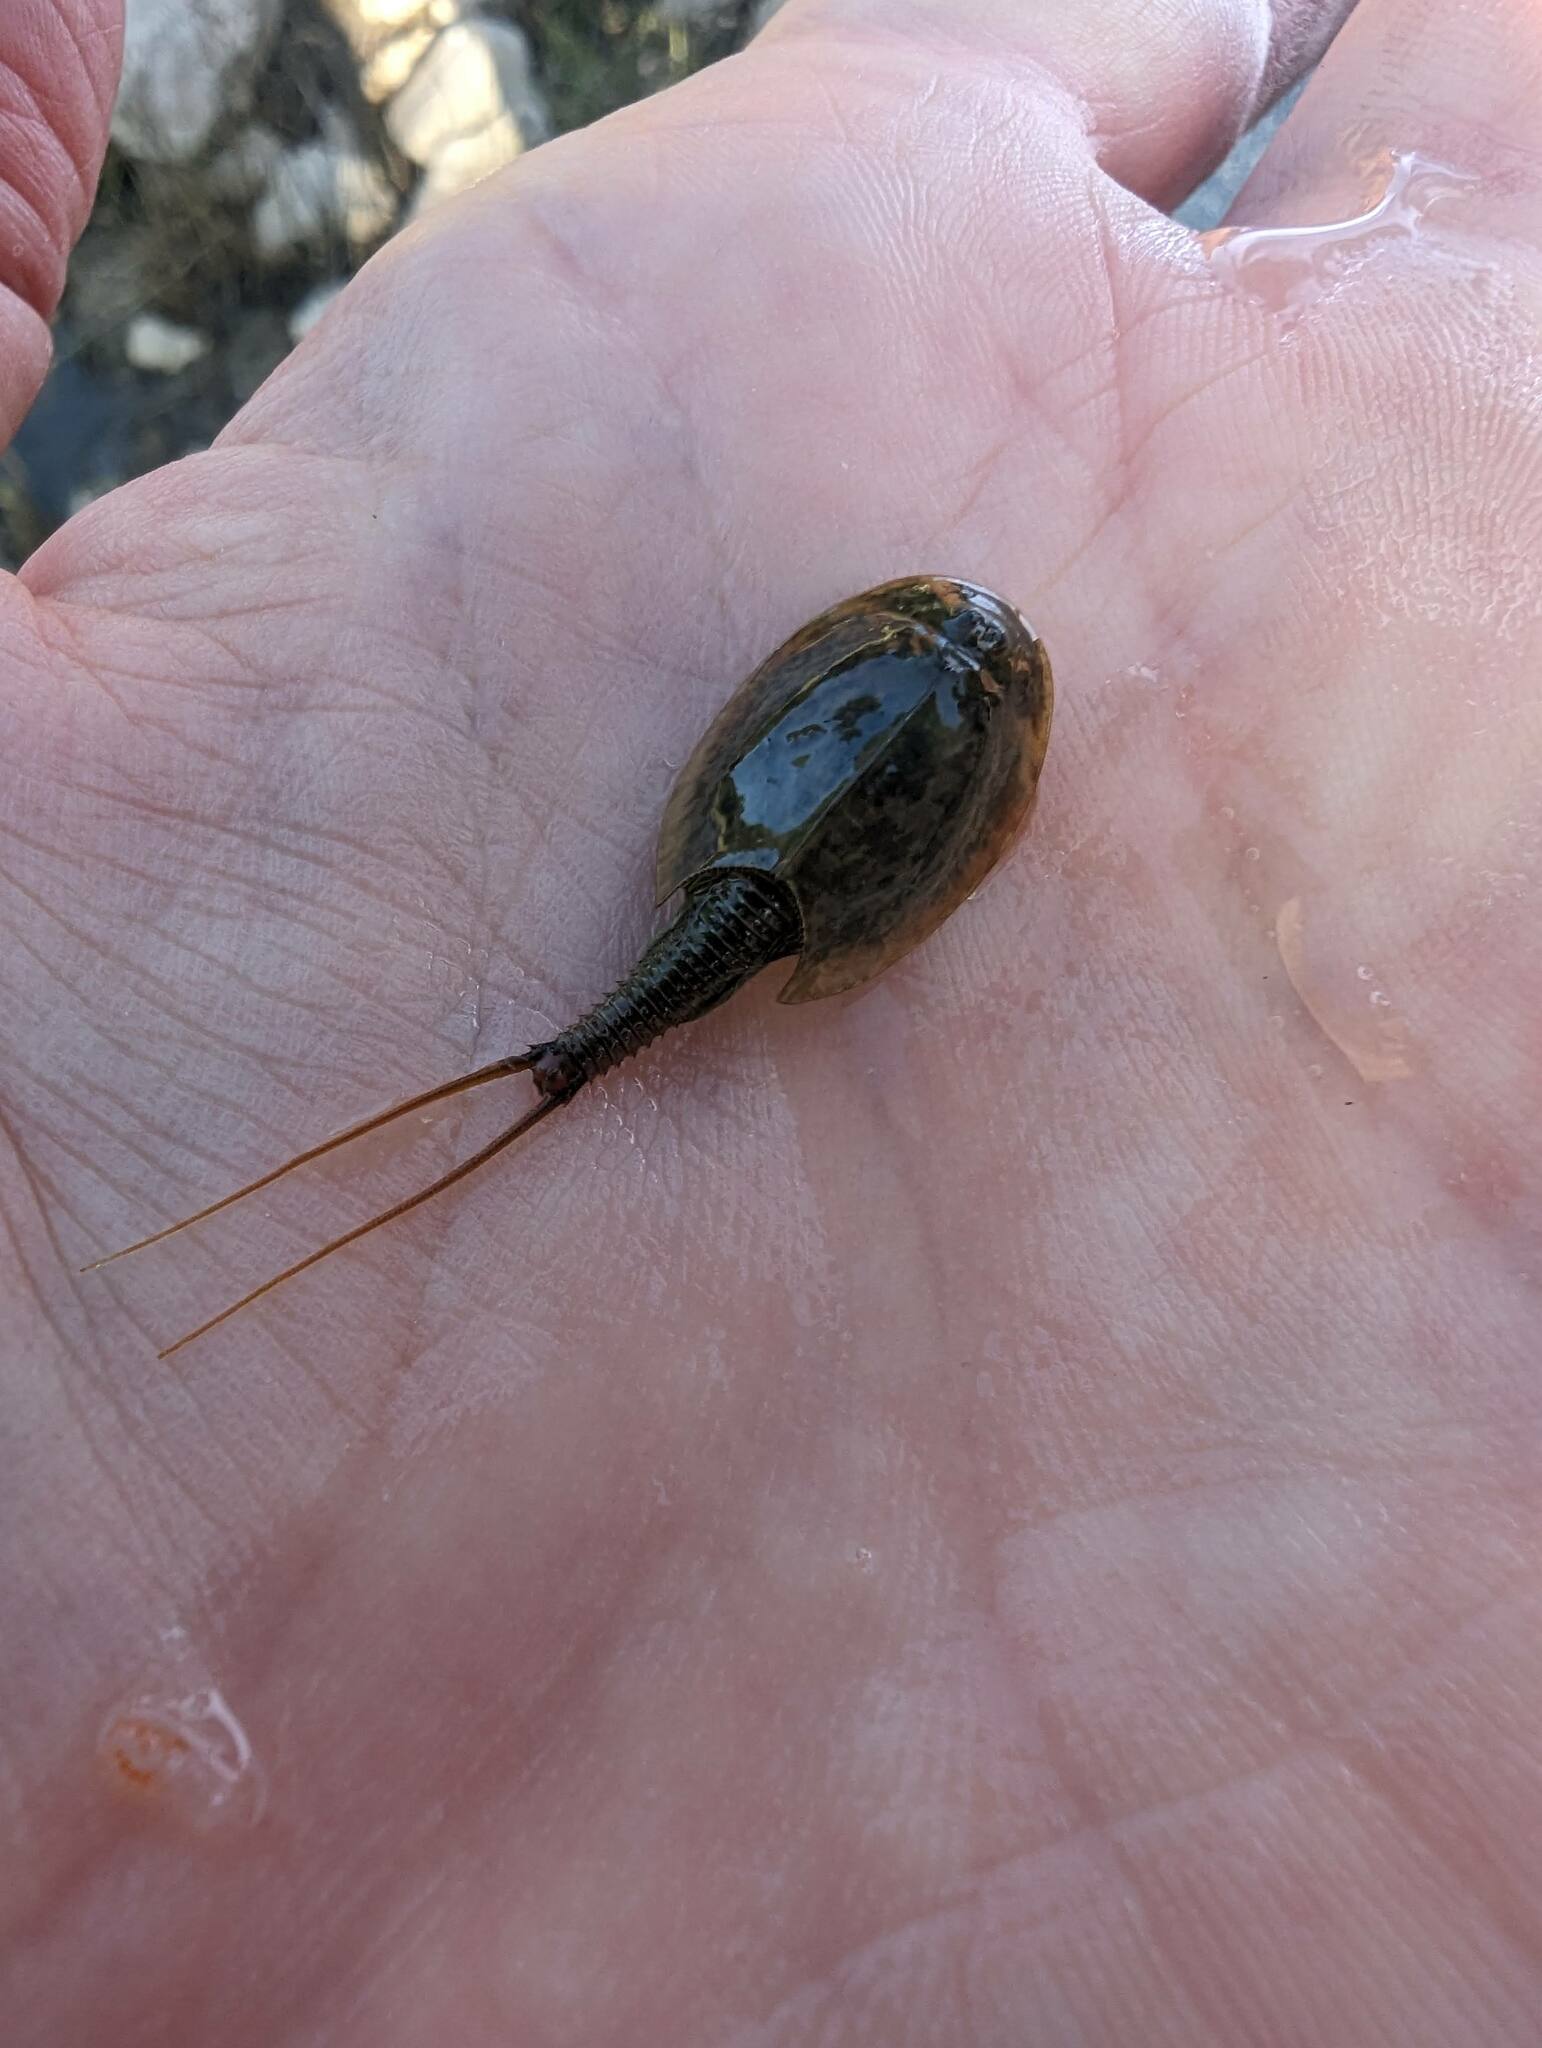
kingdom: Animalia
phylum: Arthropoda
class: Branchiopoda
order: Notostraca
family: Triopsidae
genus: Triops
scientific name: Triops cancriformis
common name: Tadpole shrimp
